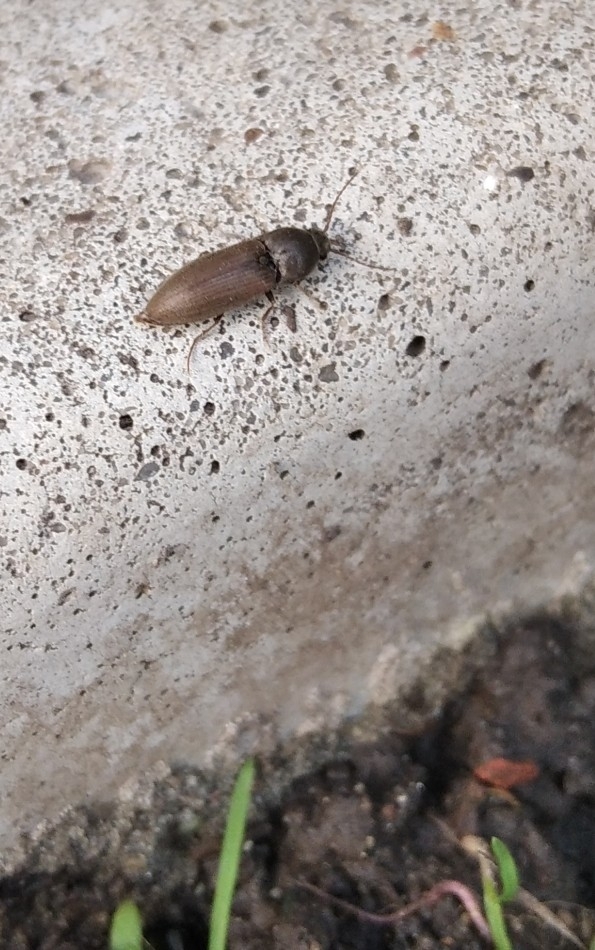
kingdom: Animalia
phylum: Arthropoda
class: Insecta
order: Coleoptera
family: Elateridae
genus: Agriotes
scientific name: Agriotes
